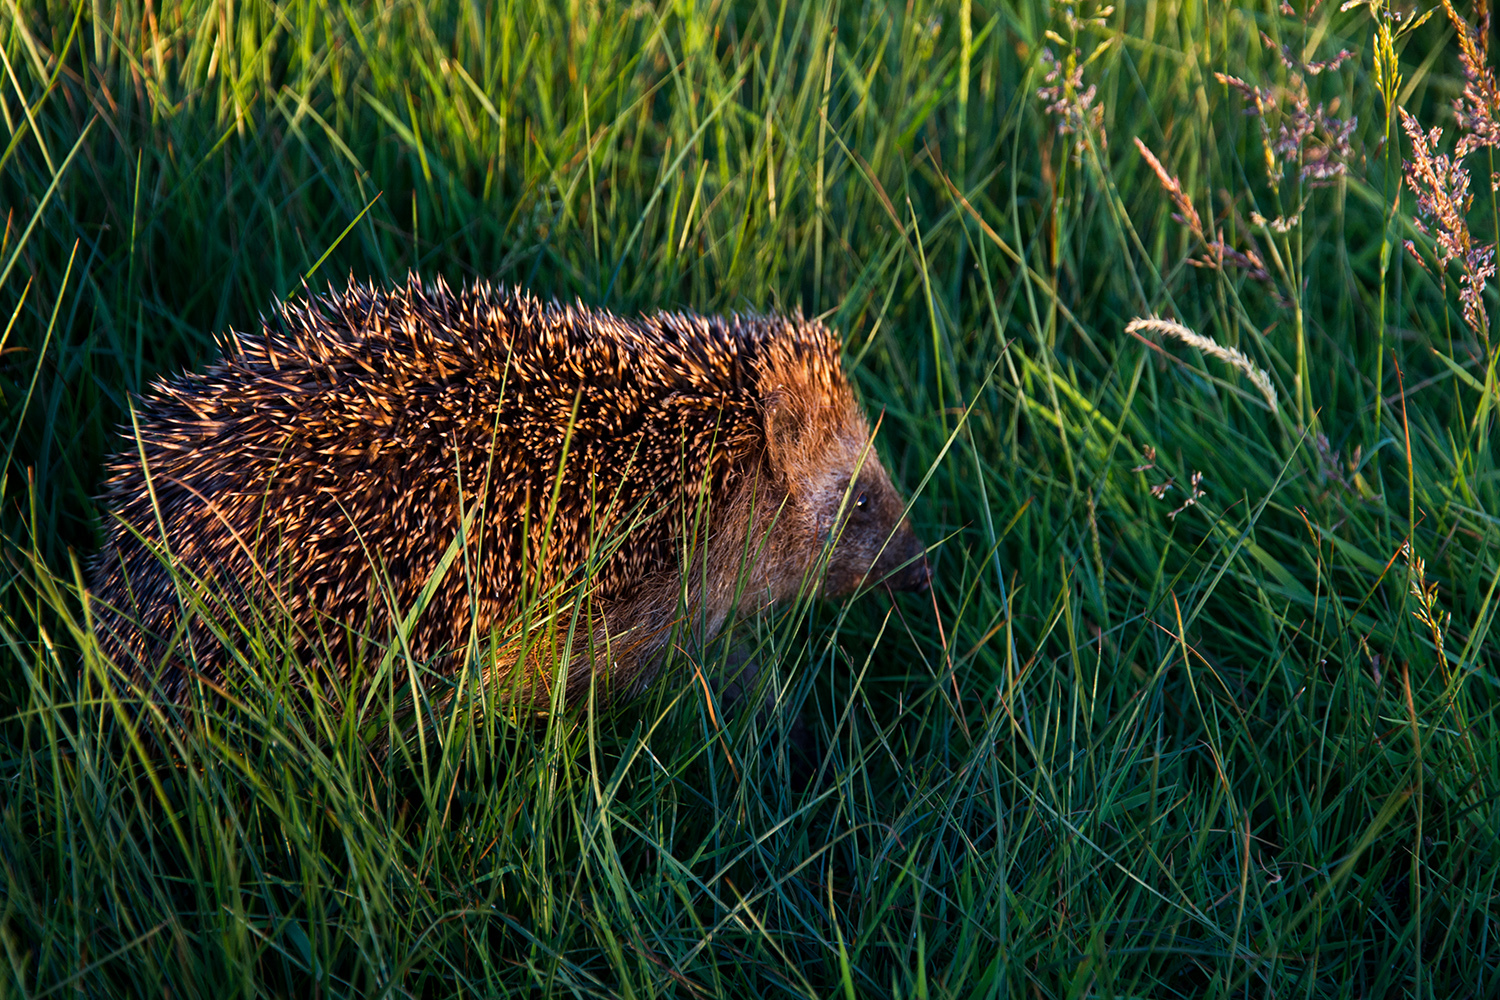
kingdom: Animalia
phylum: Chordata
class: Mammalia
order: Erinaceomorpha
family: Erinaceidae
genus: Erinaceus
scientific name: Erinaceus europaeus
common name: West european hedgehog
